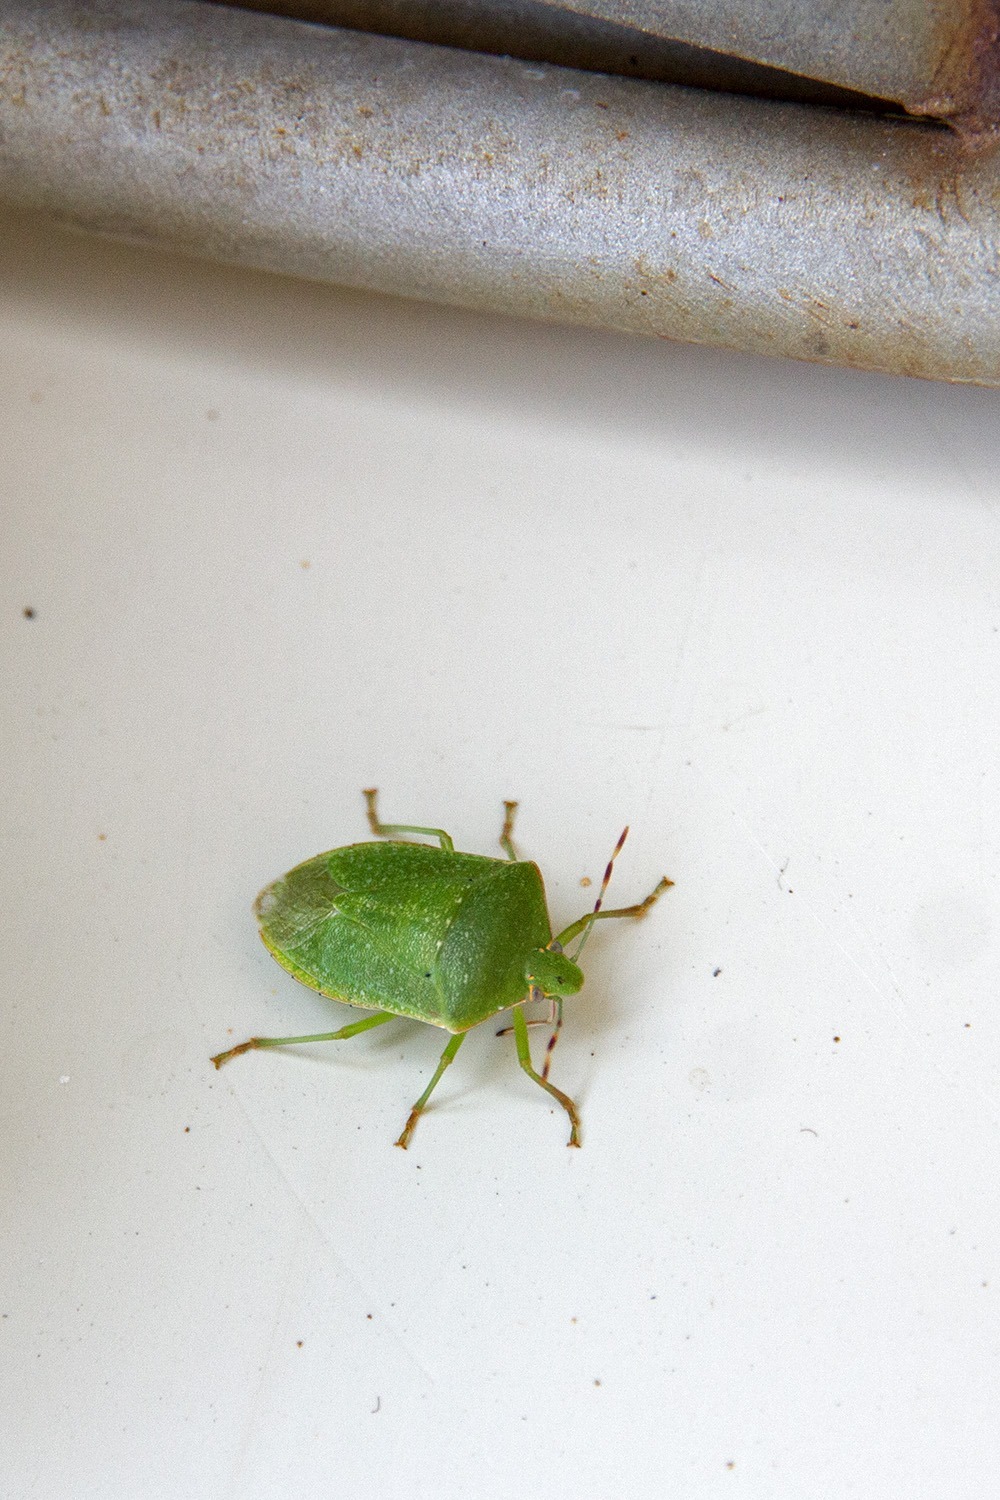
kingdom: Animalia
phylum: Arthropoda
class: Insecta
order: Hemiptera
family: Pentatomidae
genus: Nezara
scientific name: Nezara viridula
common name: Southern green stink bug
